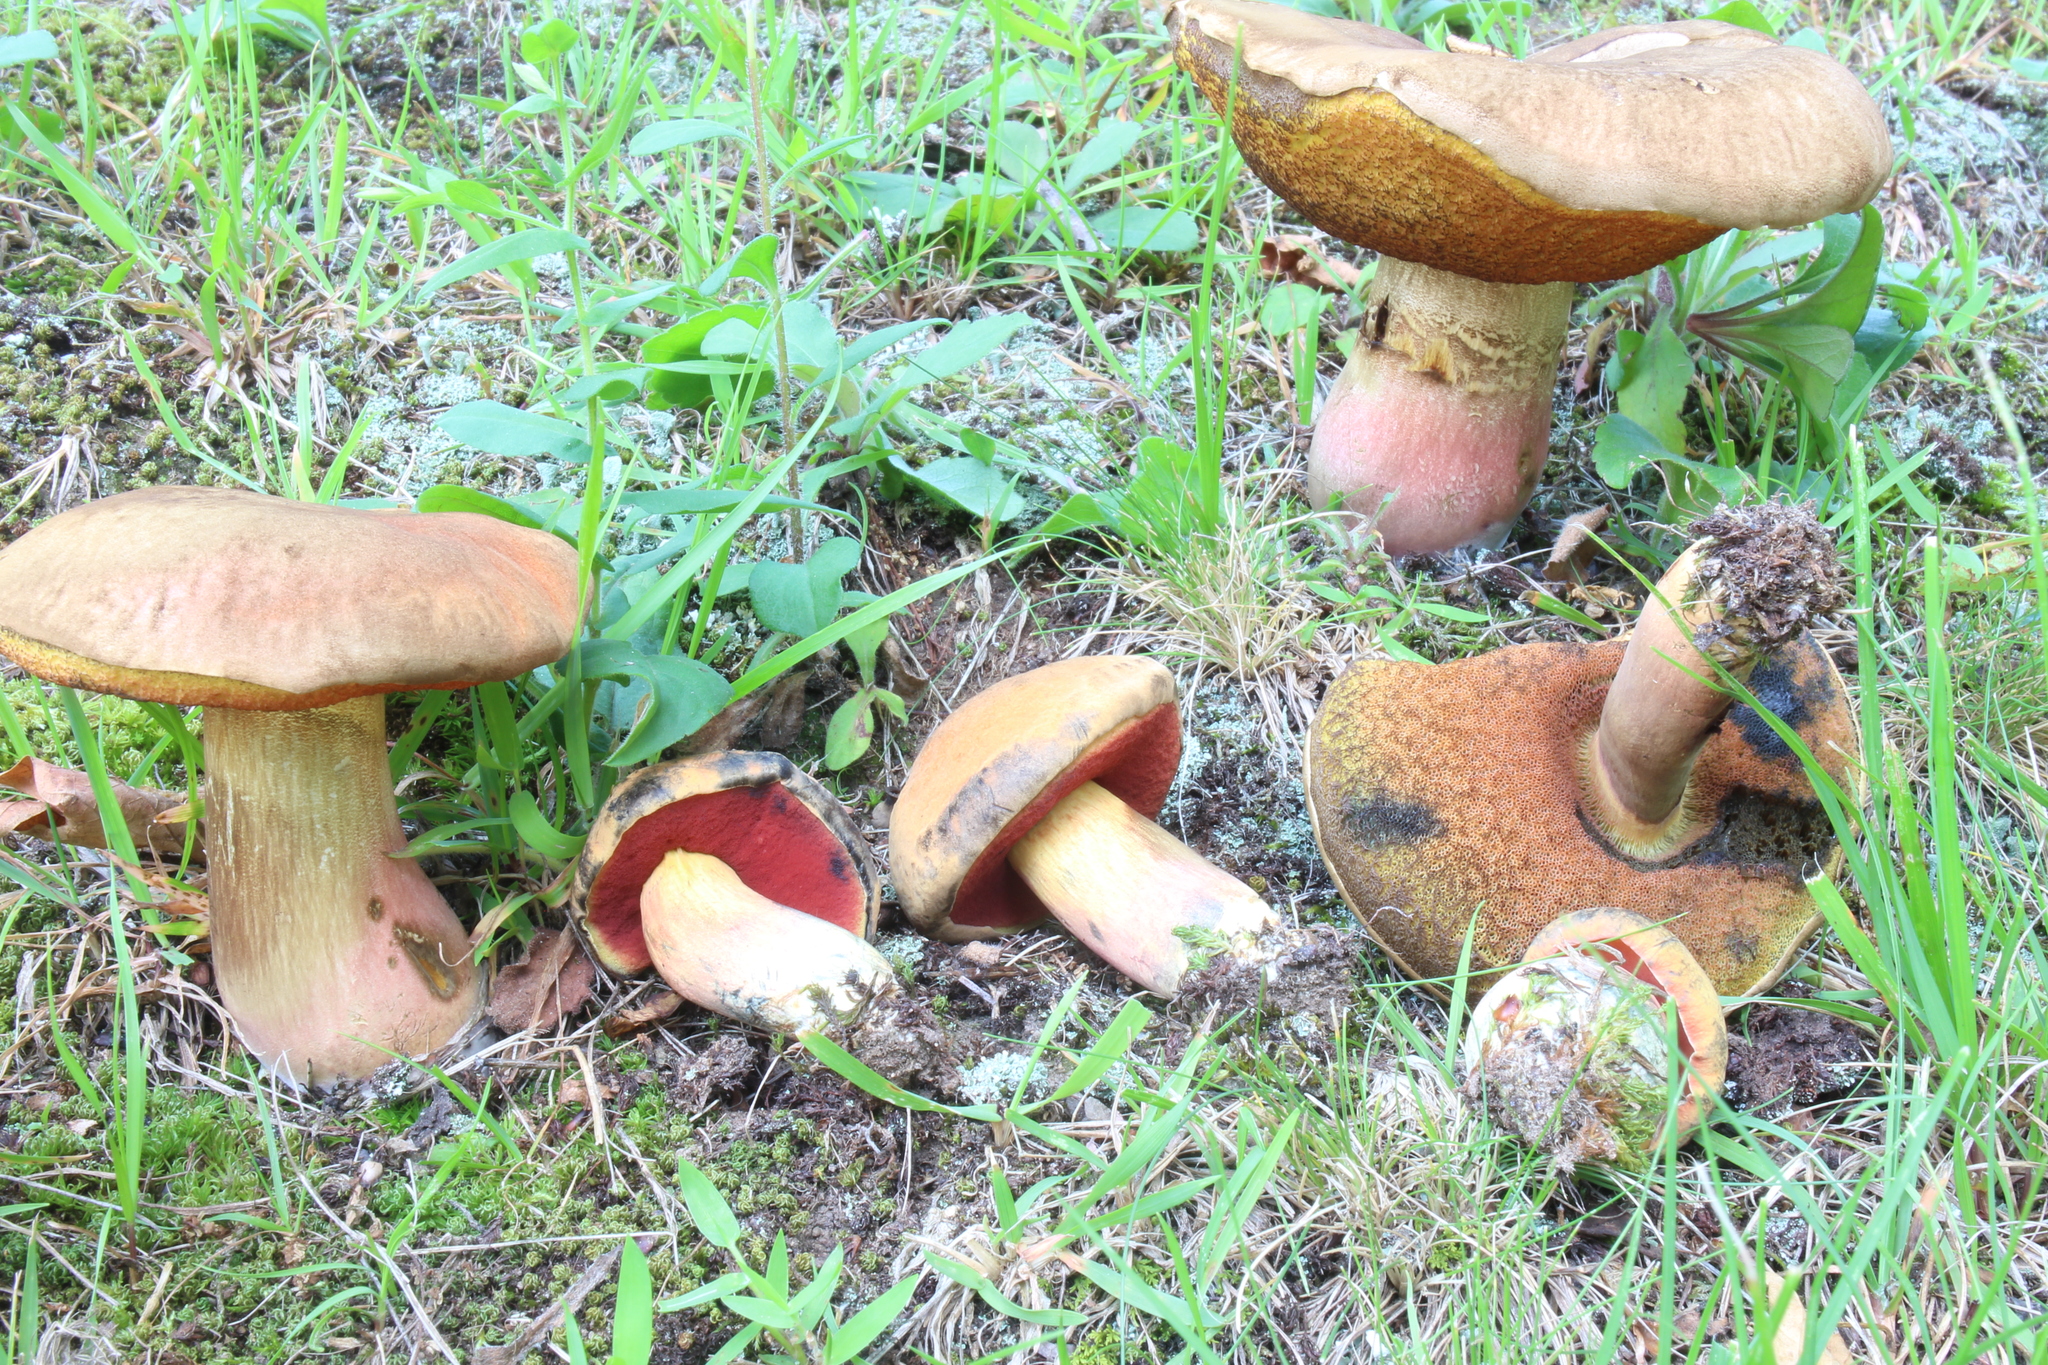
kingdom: Fungi
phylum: Basidiomycota
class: Agaricomycetes
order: Boletales
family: Boletaceae
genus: Boletus
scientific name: Boletus subvelutipes
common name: Red-mouth bolete
